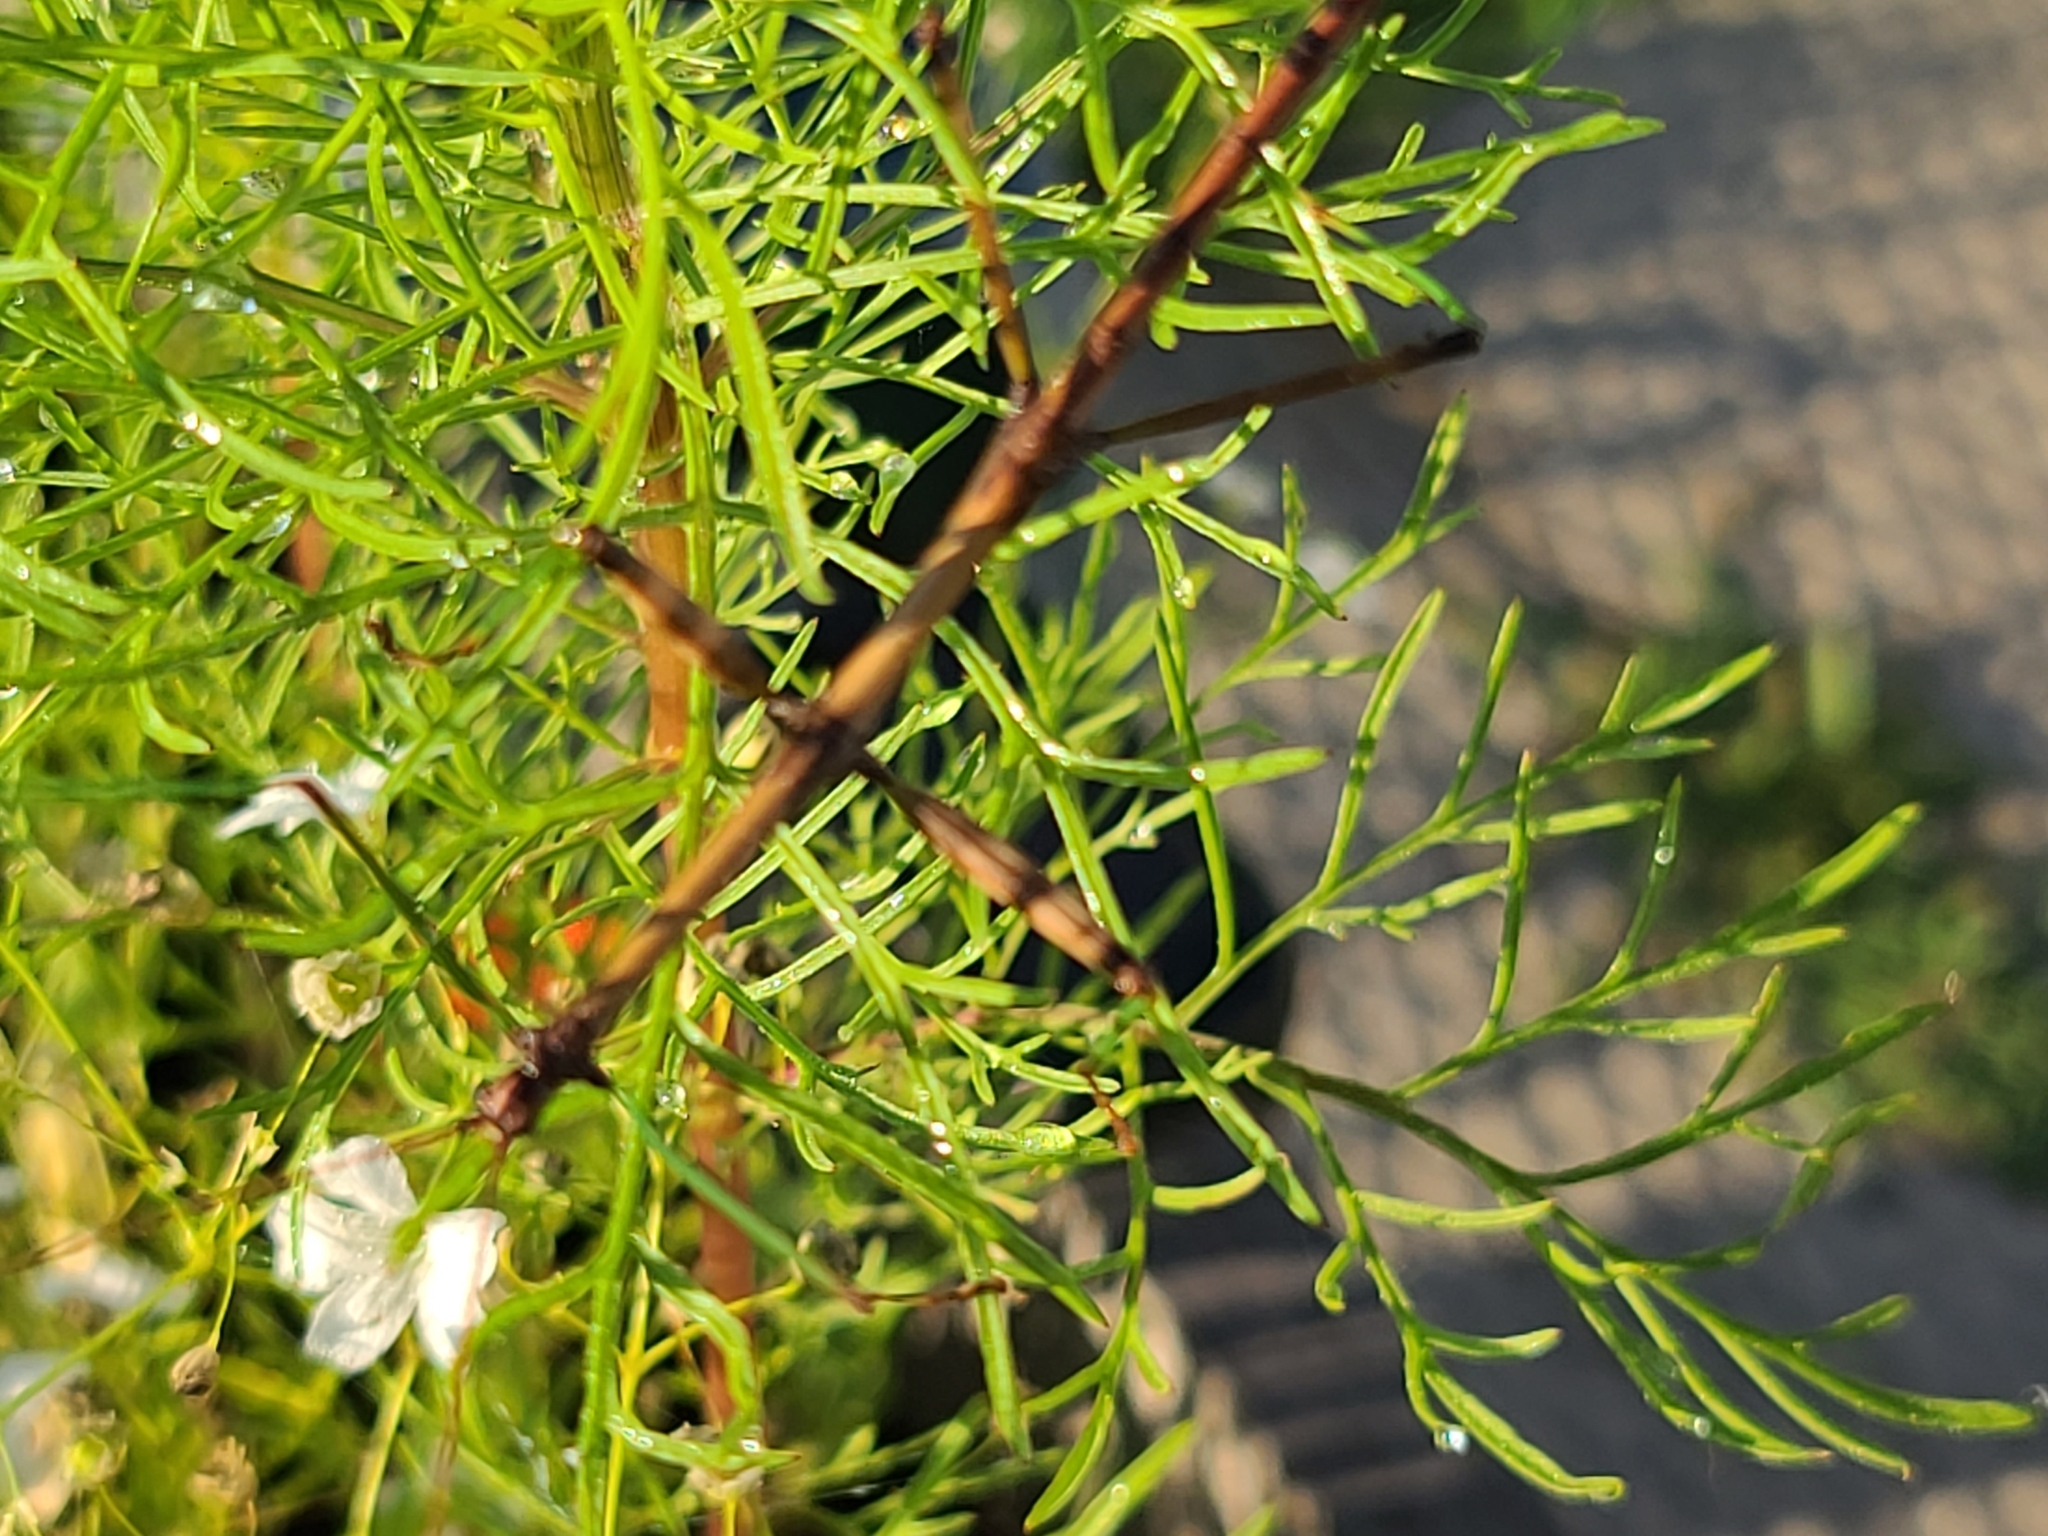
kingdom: Animalia
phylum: Arthropoda
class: Insecta
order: Phasmida
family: Diapheromeridae
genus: Diapheromera
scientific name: Diapheromera femorata
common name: Common american walkingstick
